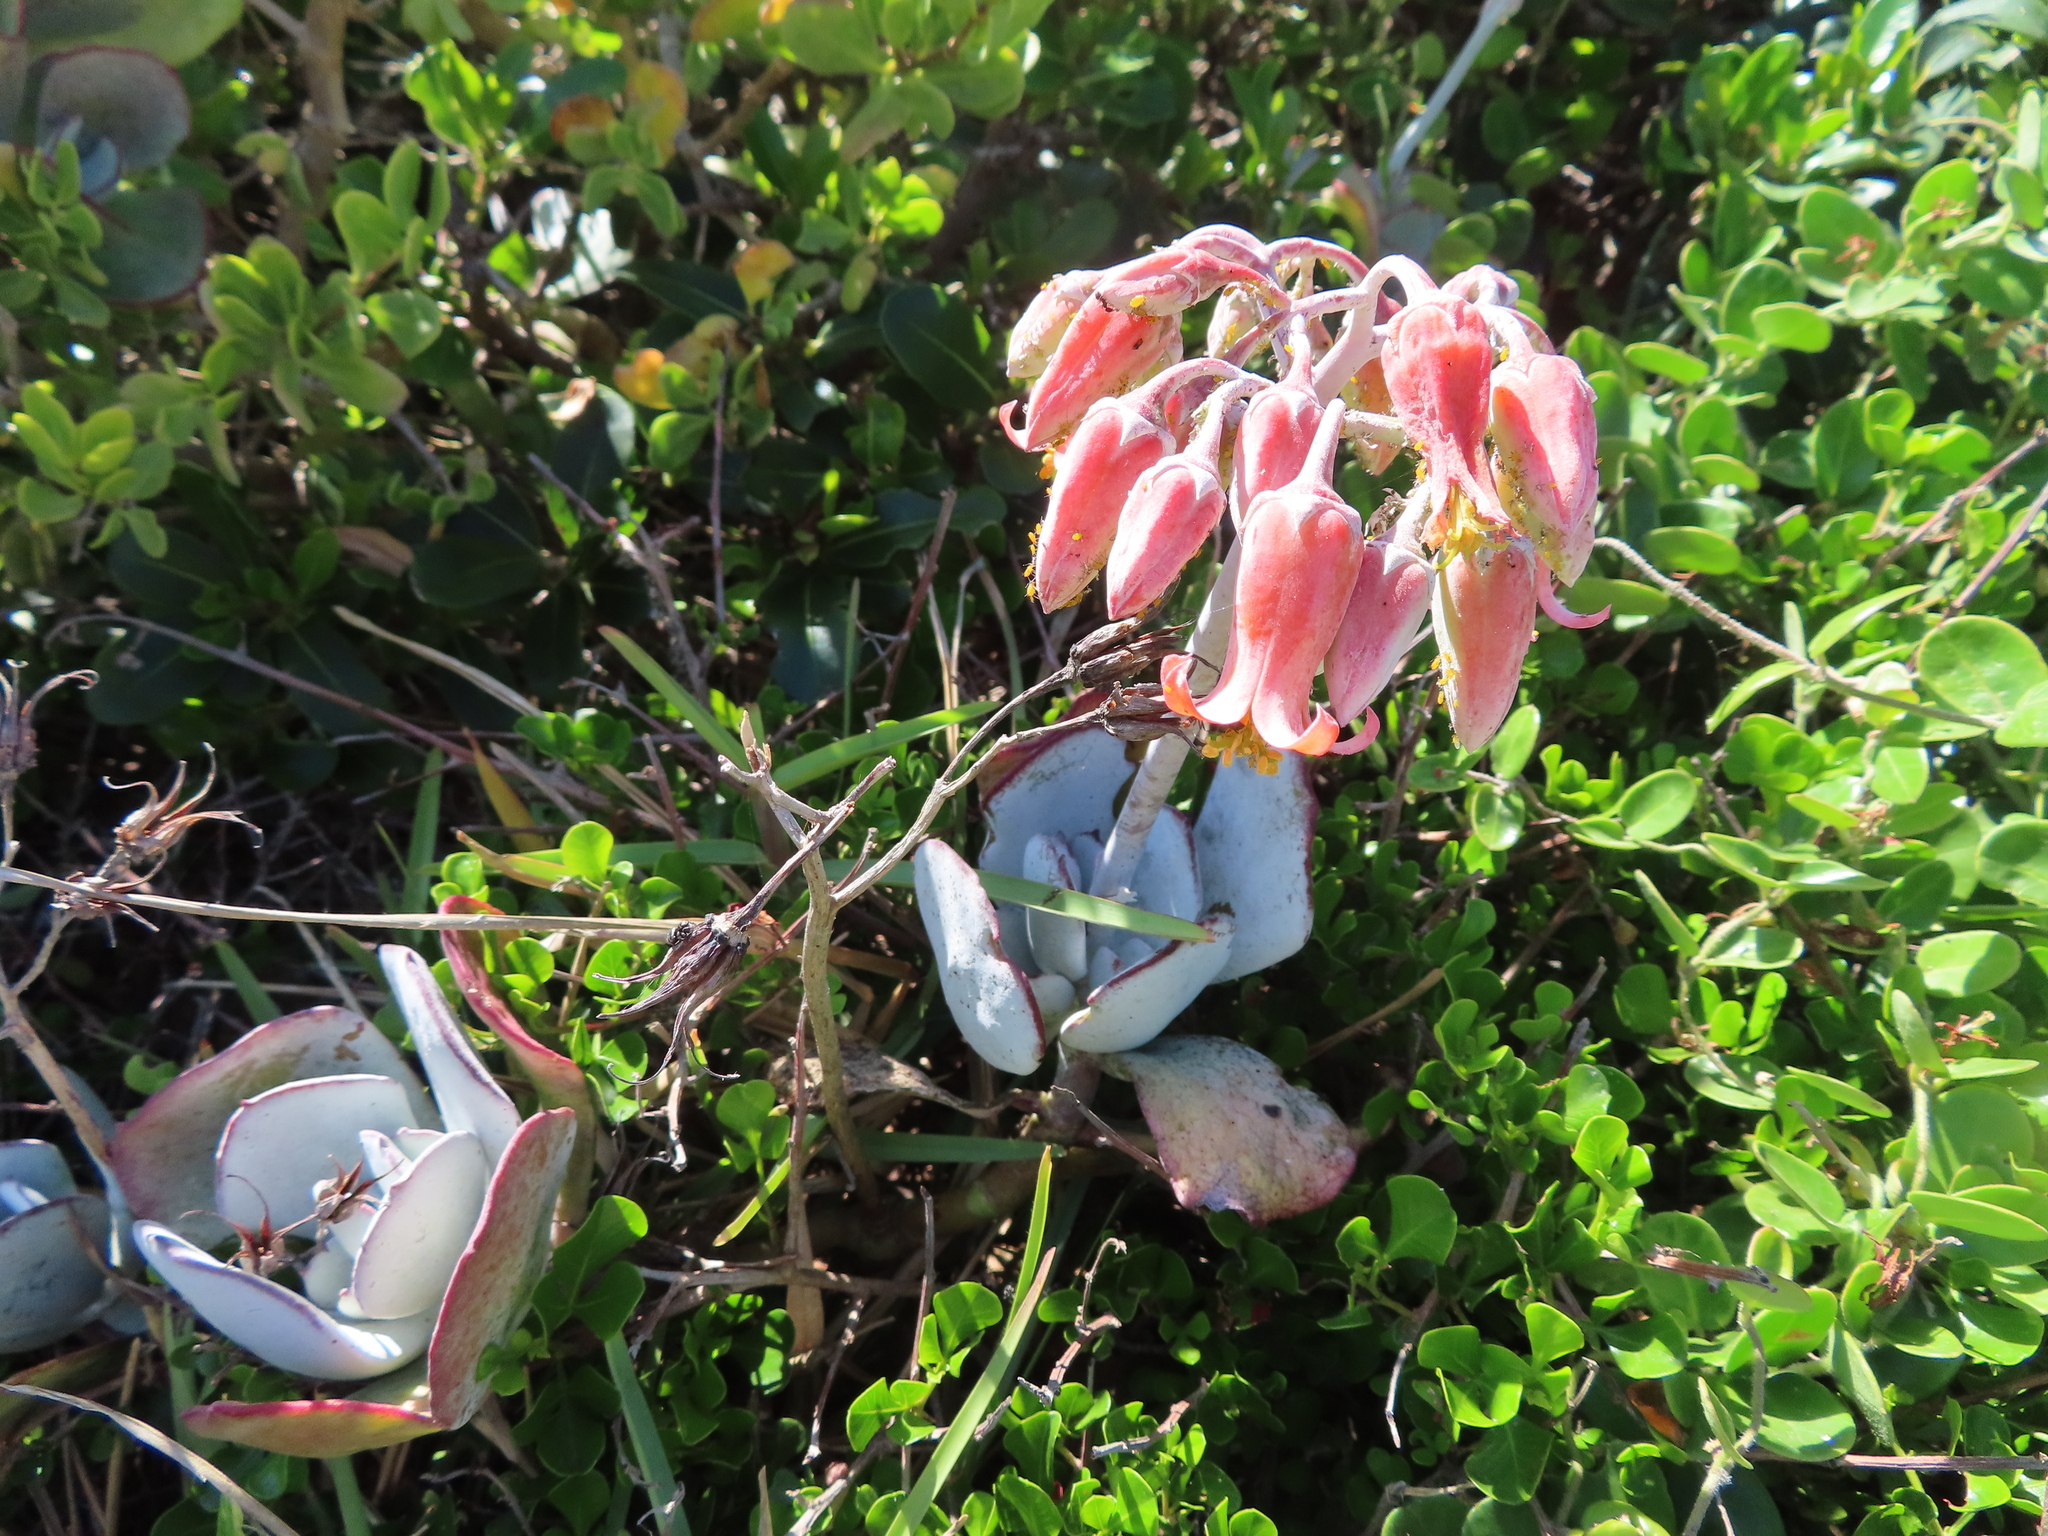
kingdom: Plantae
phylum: Tracheophyta
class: Magnoliopsida
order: Saxifragales
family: Crassulaceae
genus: Cotyledon
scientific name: Cotyledon orbiculata
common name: Pig's ear
